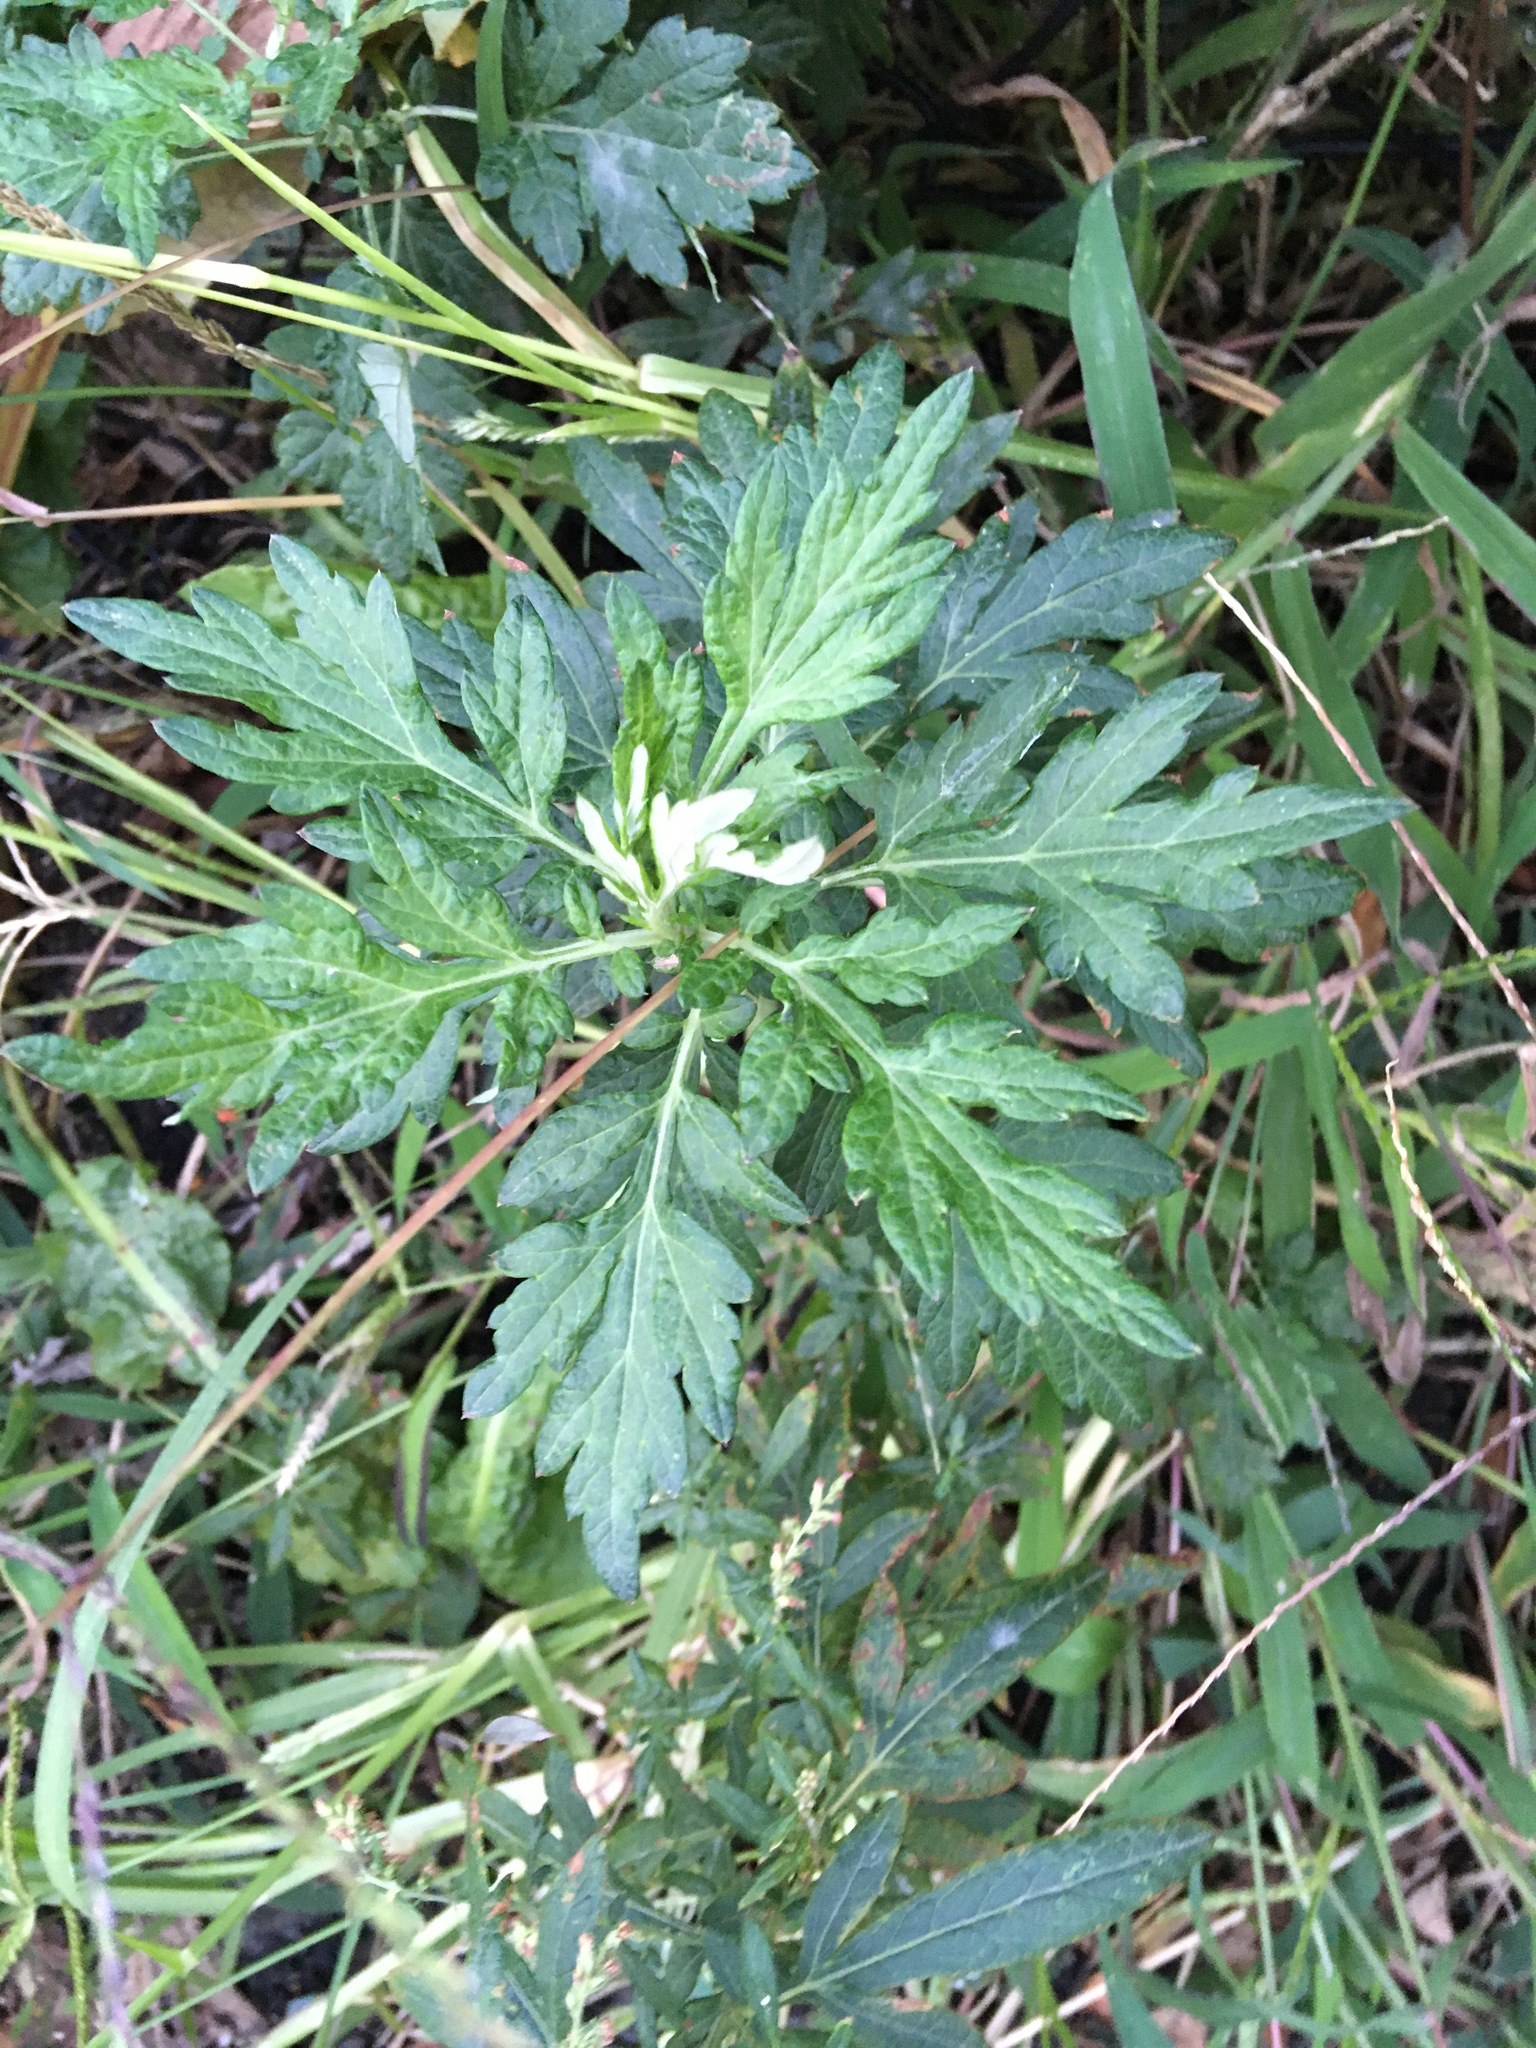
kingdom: Plantae
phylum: Tracheophyta
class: Magnoliopsida
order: Asterales
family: Asteraceae
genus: Artemisia
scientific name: Artemisia vulgaris
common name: Mugwort
